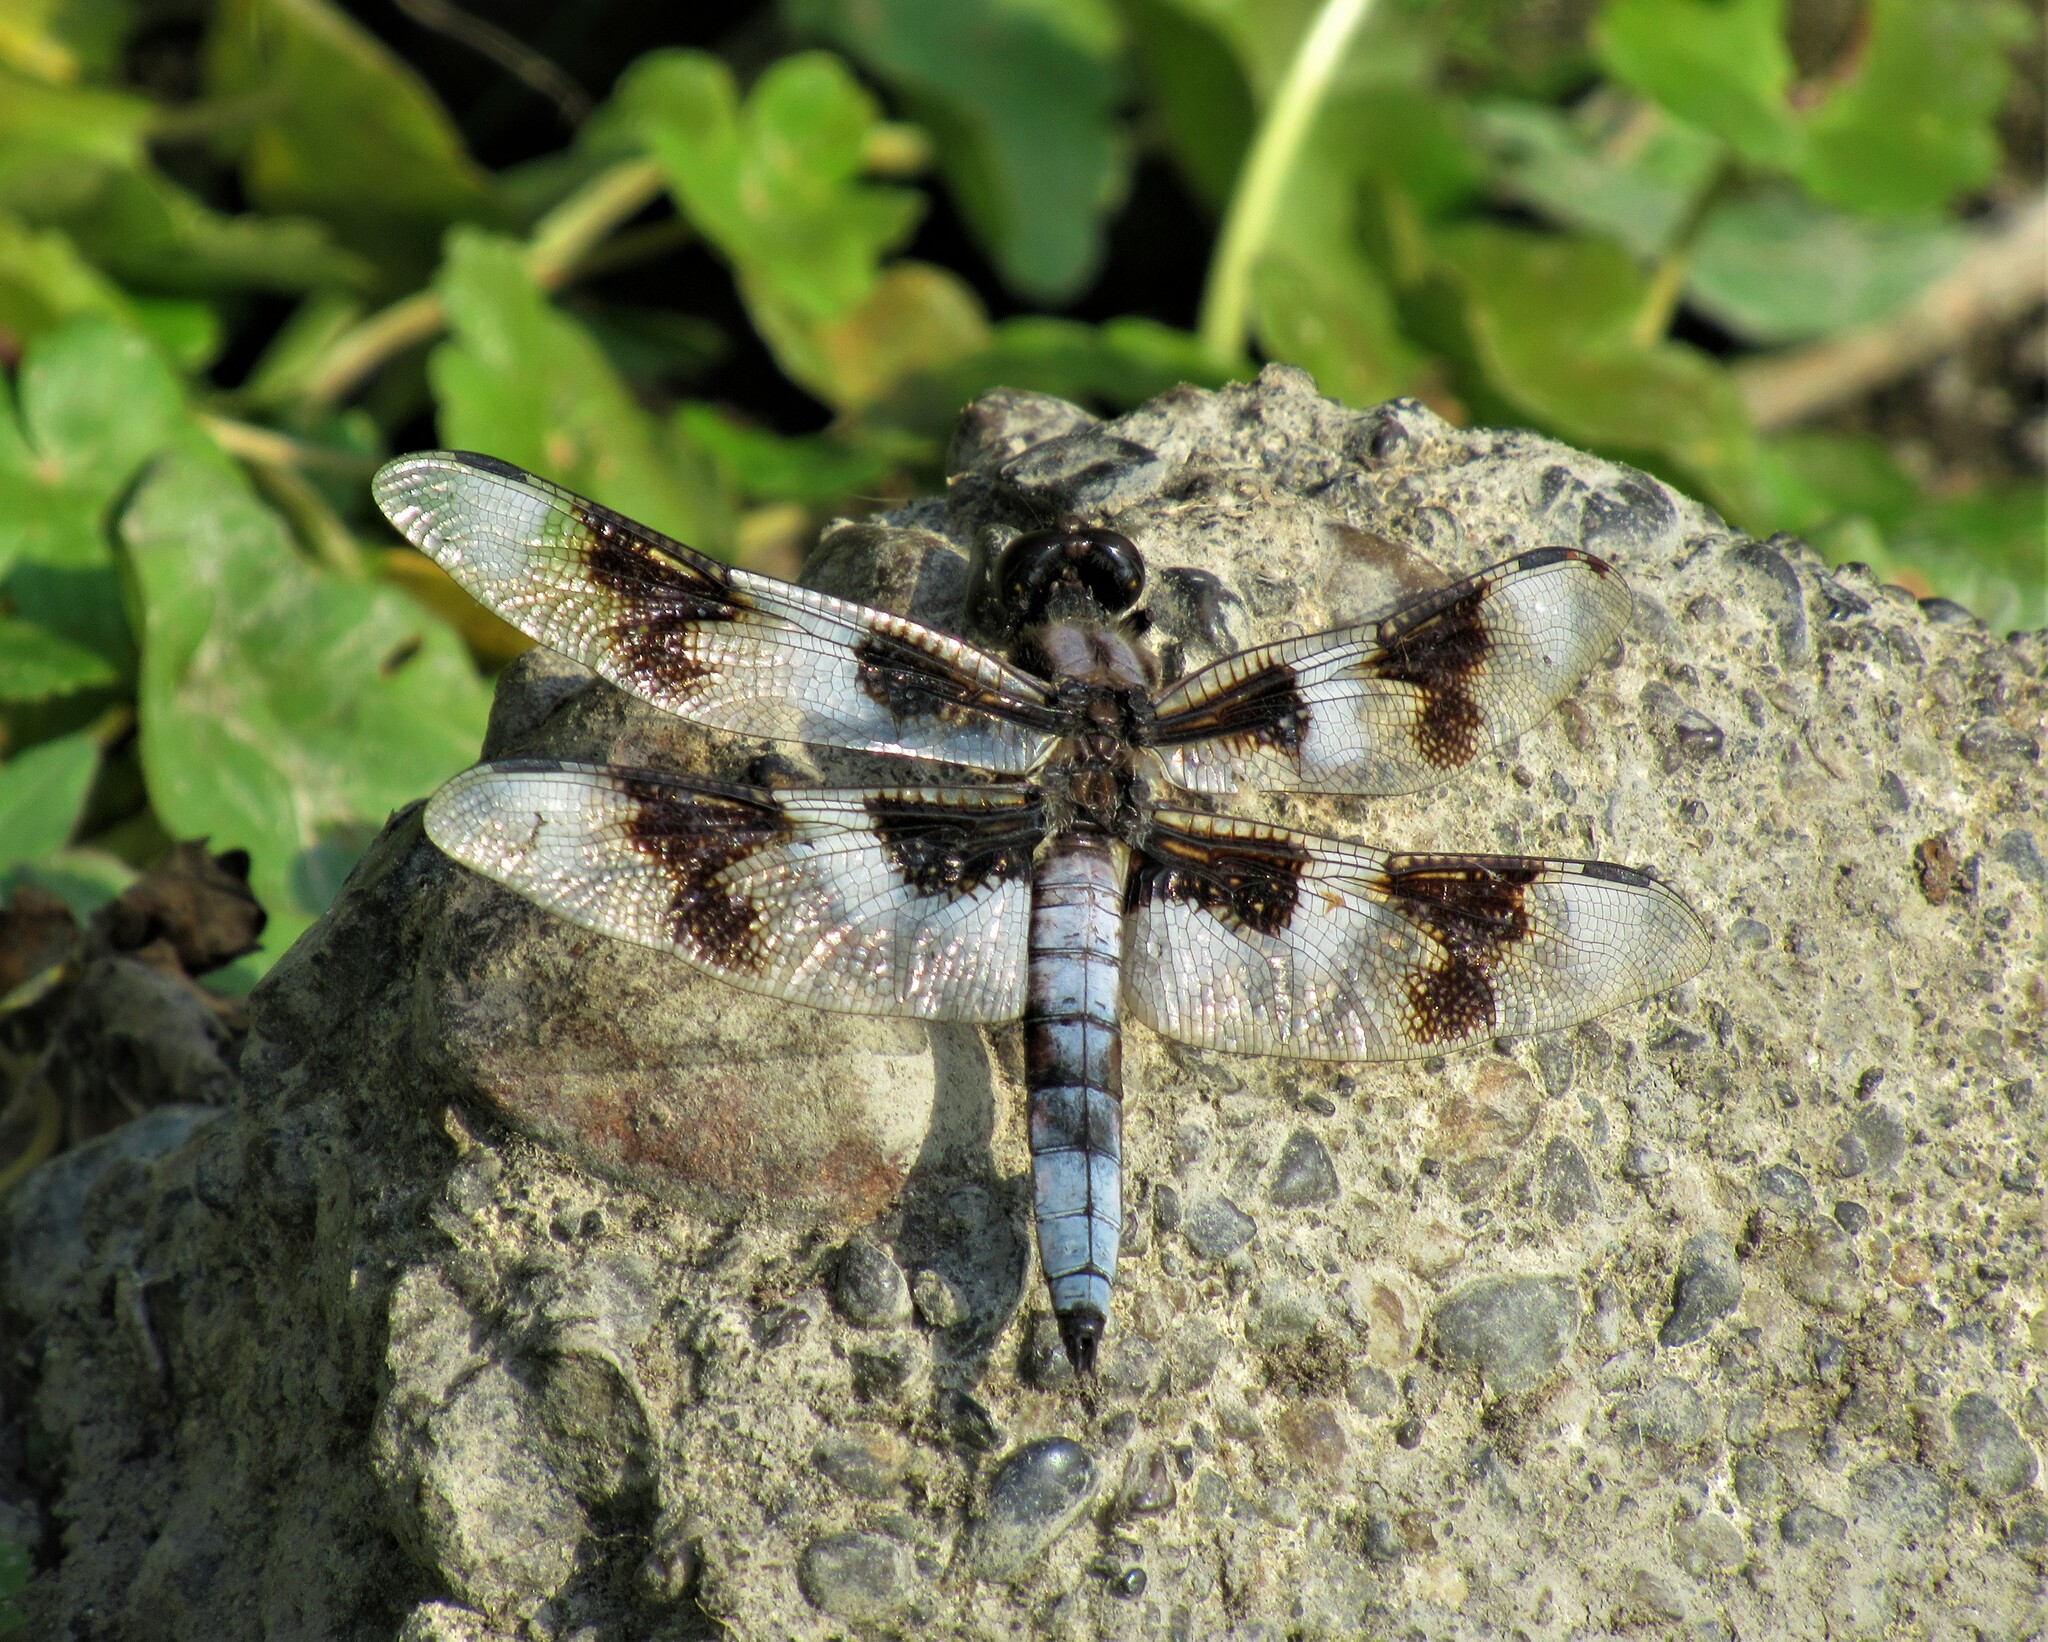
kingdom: Animalia
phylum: Arthropoda
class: Insecta
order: Odonata
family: Libellulidae
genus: Libellula
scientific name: Libellula forensis
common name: Eight-spotted skimmer
